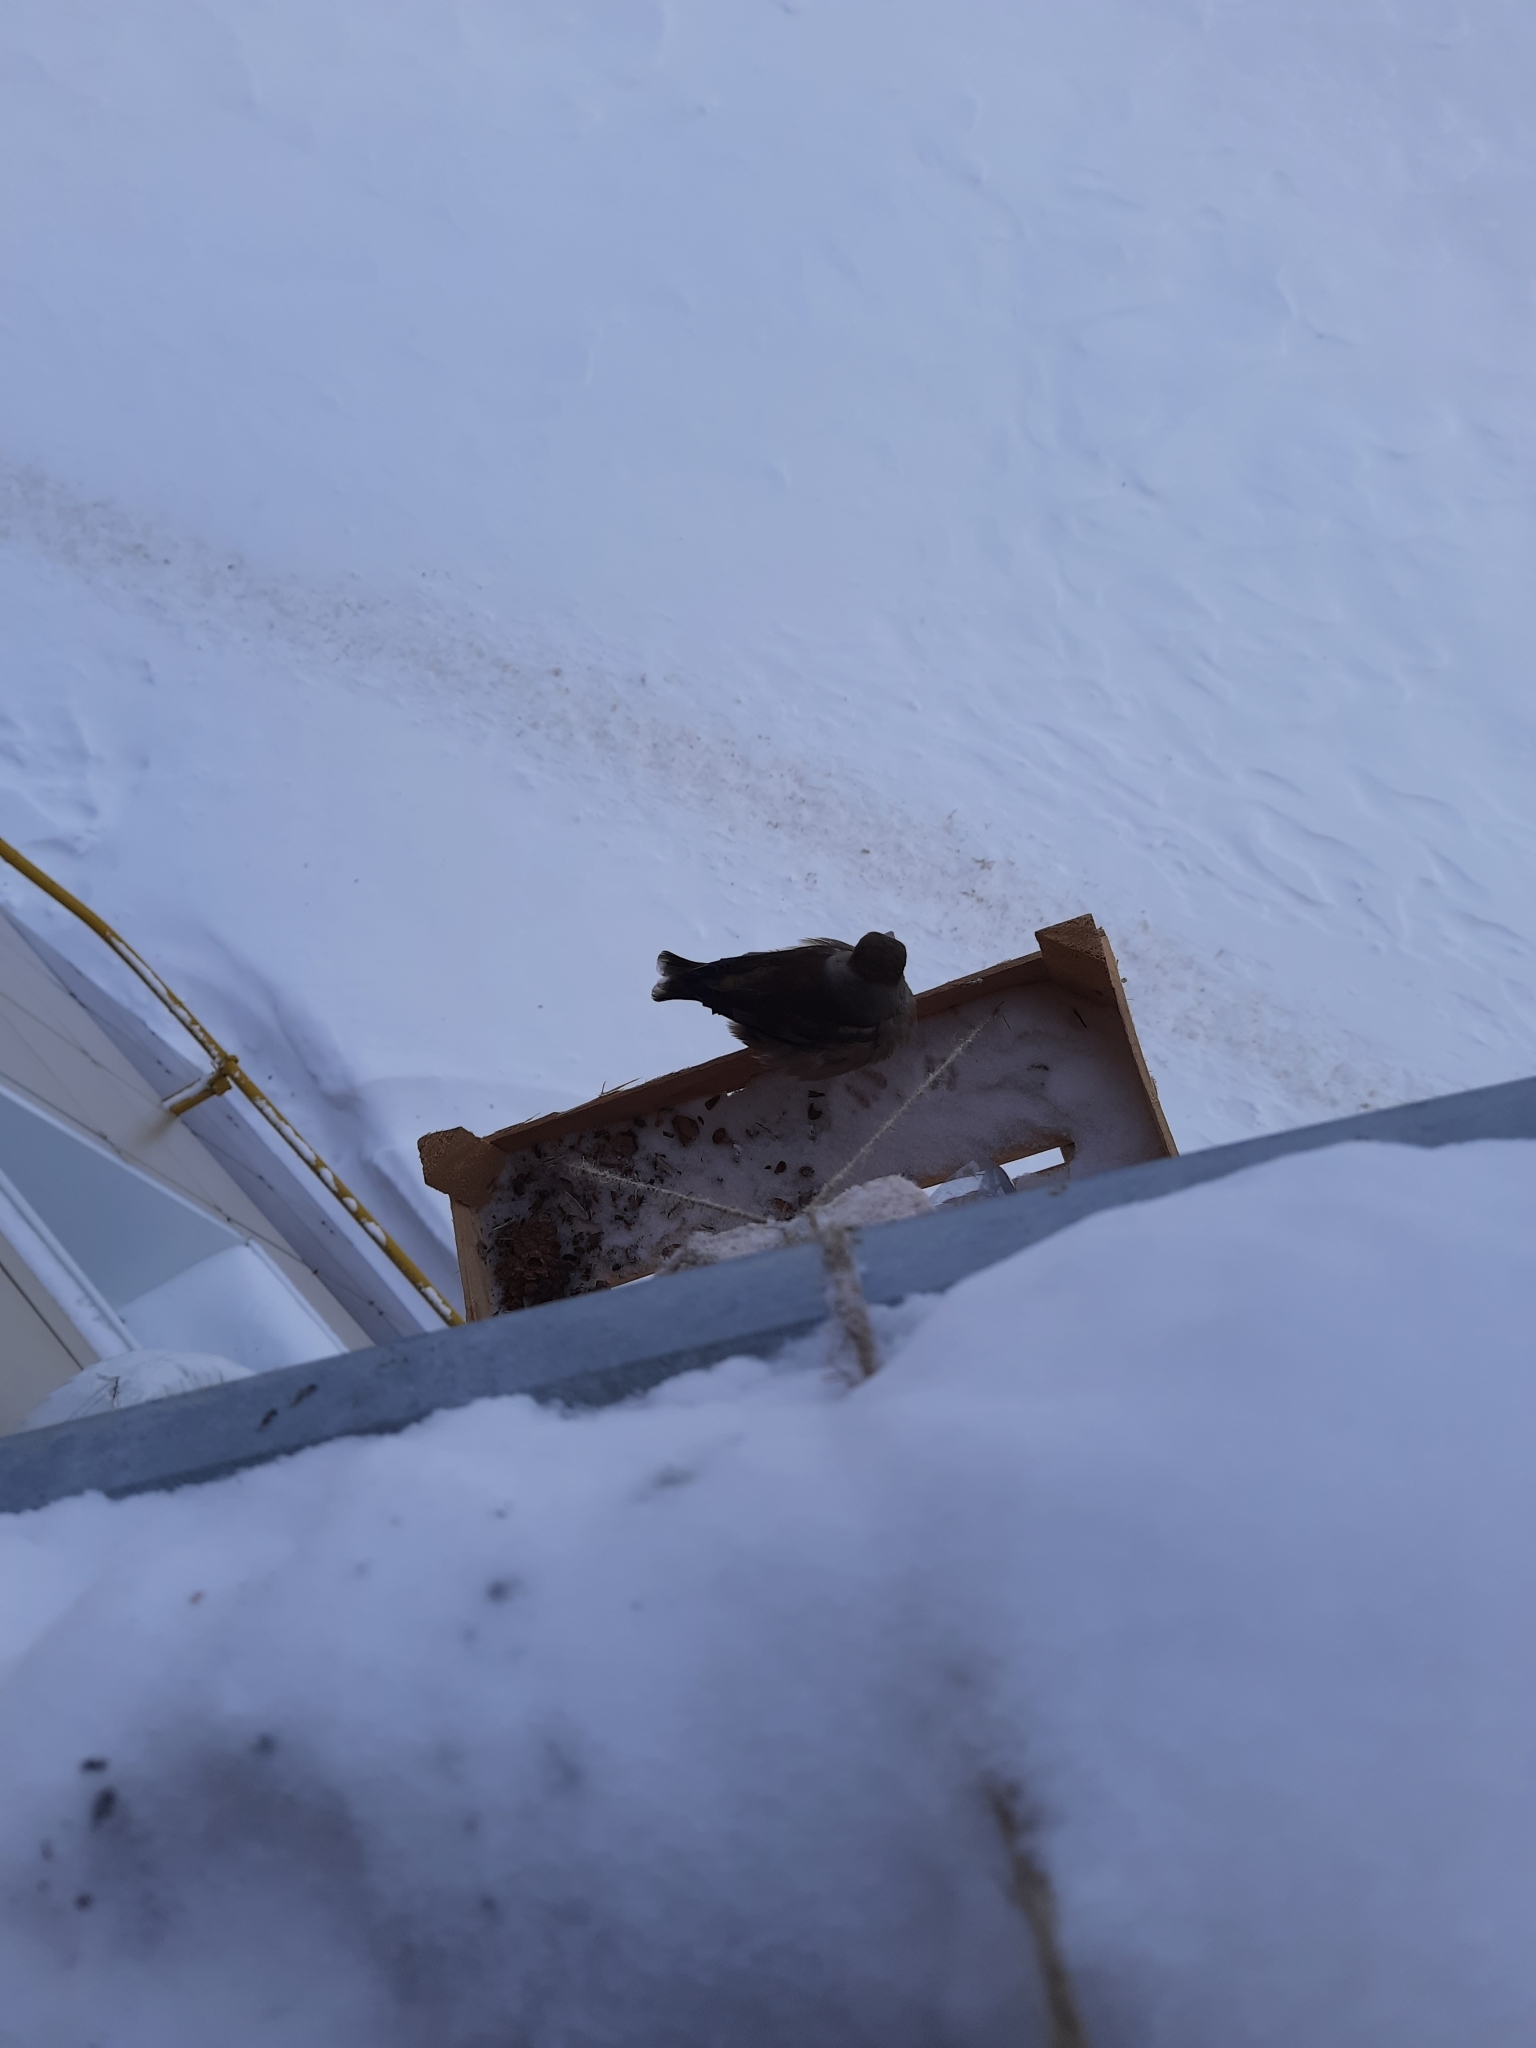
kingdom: Animalia
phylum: Chordata
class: Aves
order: Passeriformes
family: Fringillidae
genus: Coccothraustes
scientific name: Coccothraustes coccothraustes
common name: Hawfinch
